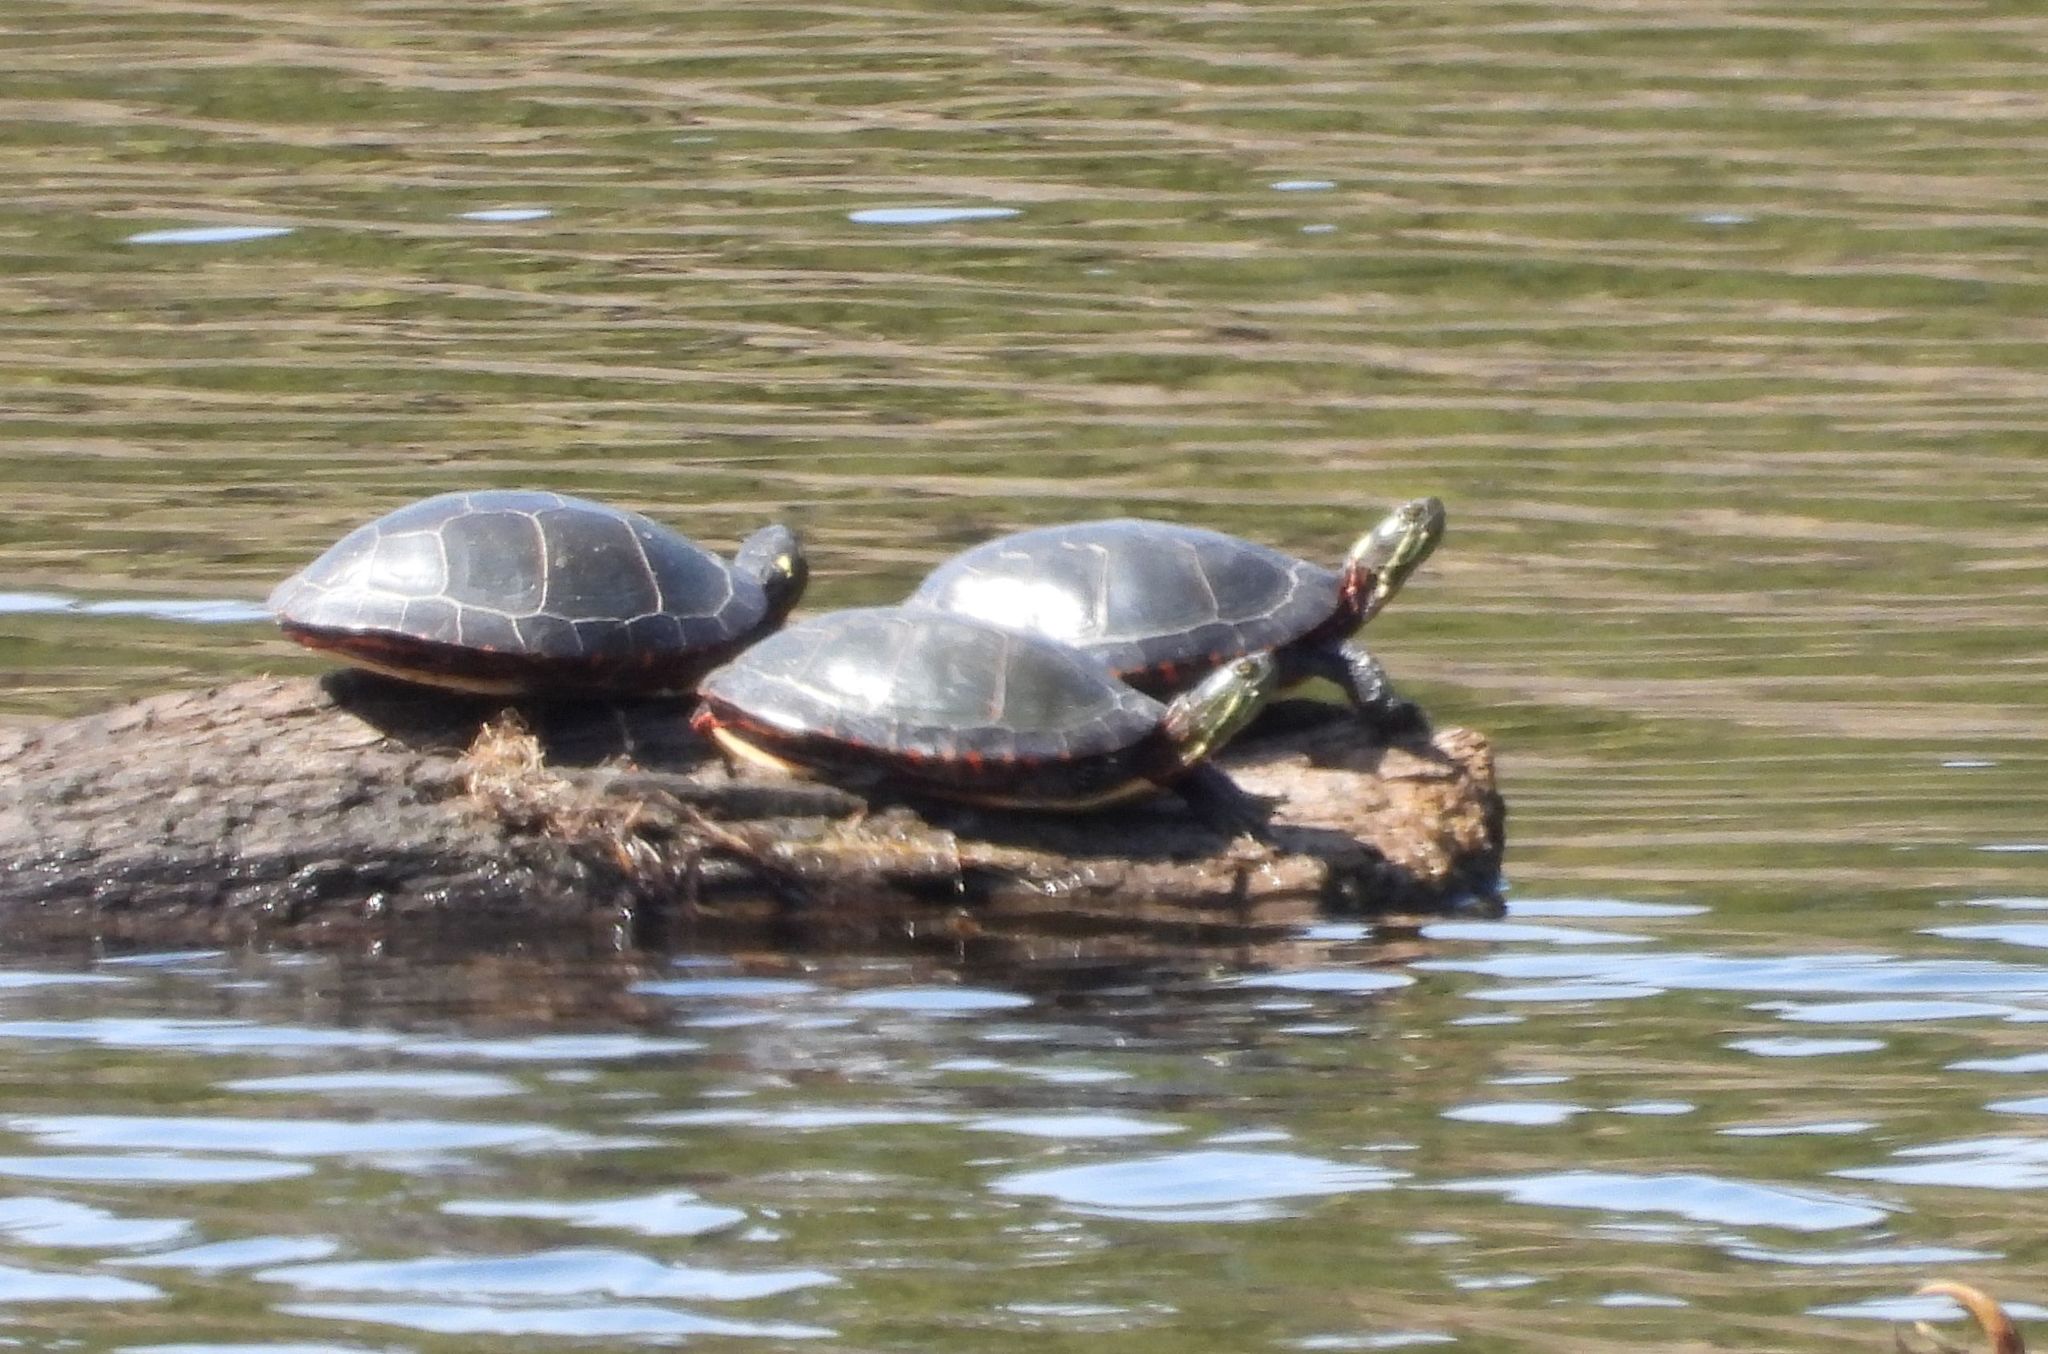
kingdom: Animalia
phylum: Chordata
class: Testudines
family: Emydidae
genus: Chrysemys
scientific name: Chrysemys picta
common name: Painted turtle
